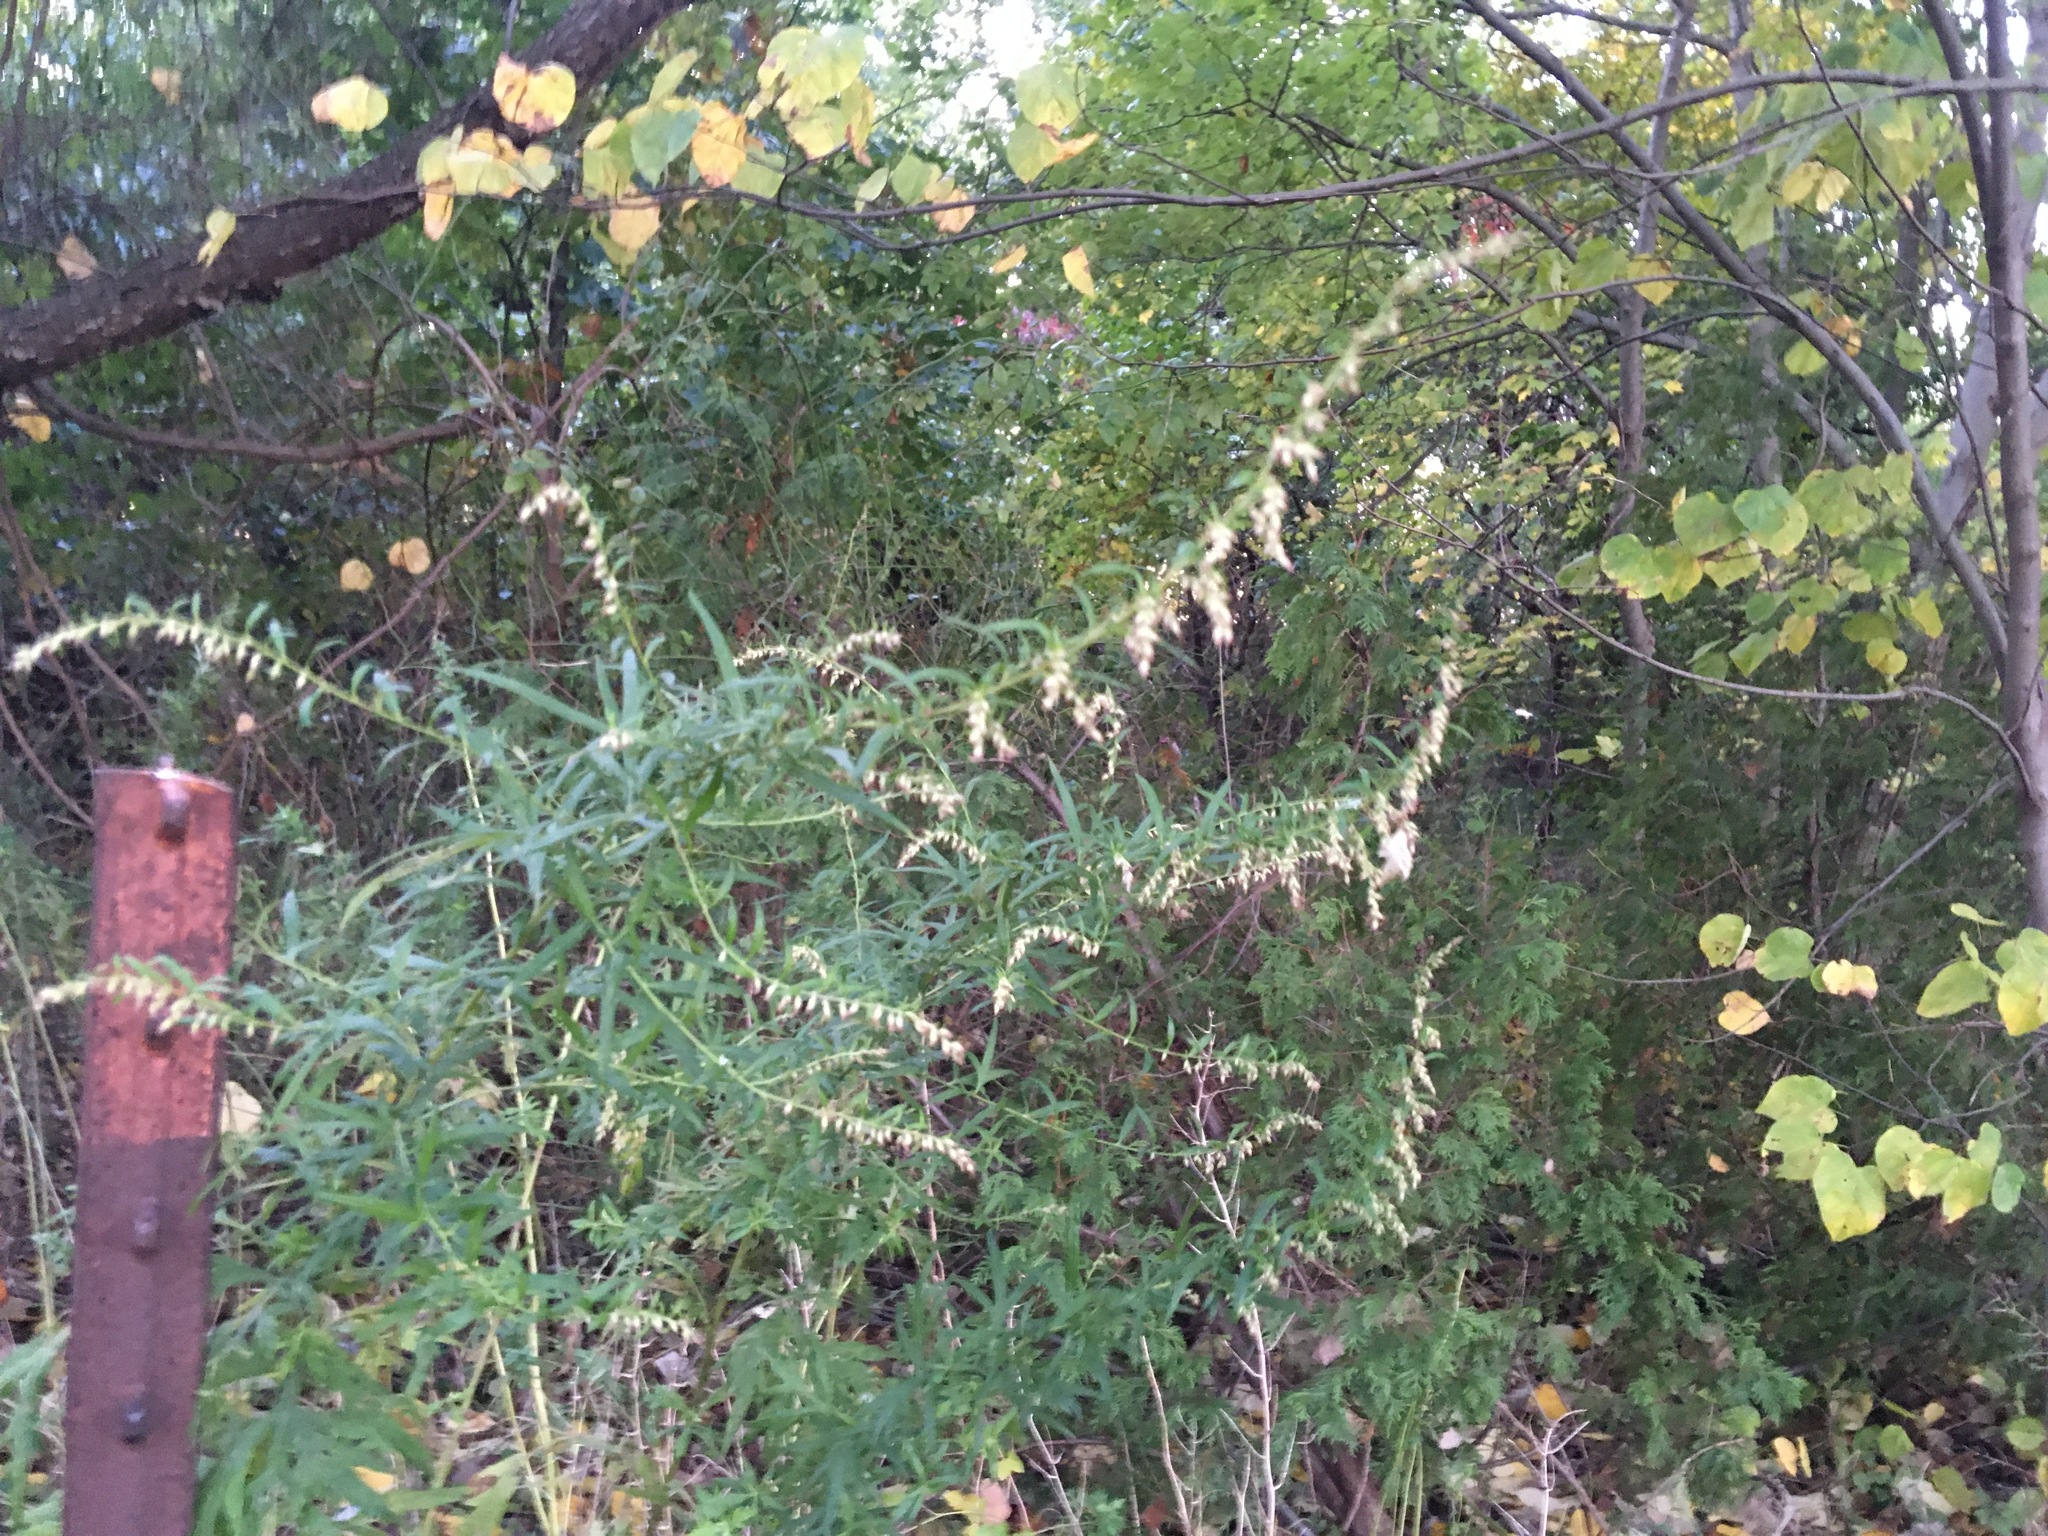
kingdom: Plantae
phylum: Tracheophyta
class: Magnoliopsida
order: Asterales
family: Asteraceae
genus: Artemisia
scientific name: Artemisia vulgaris
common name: Mugwort
